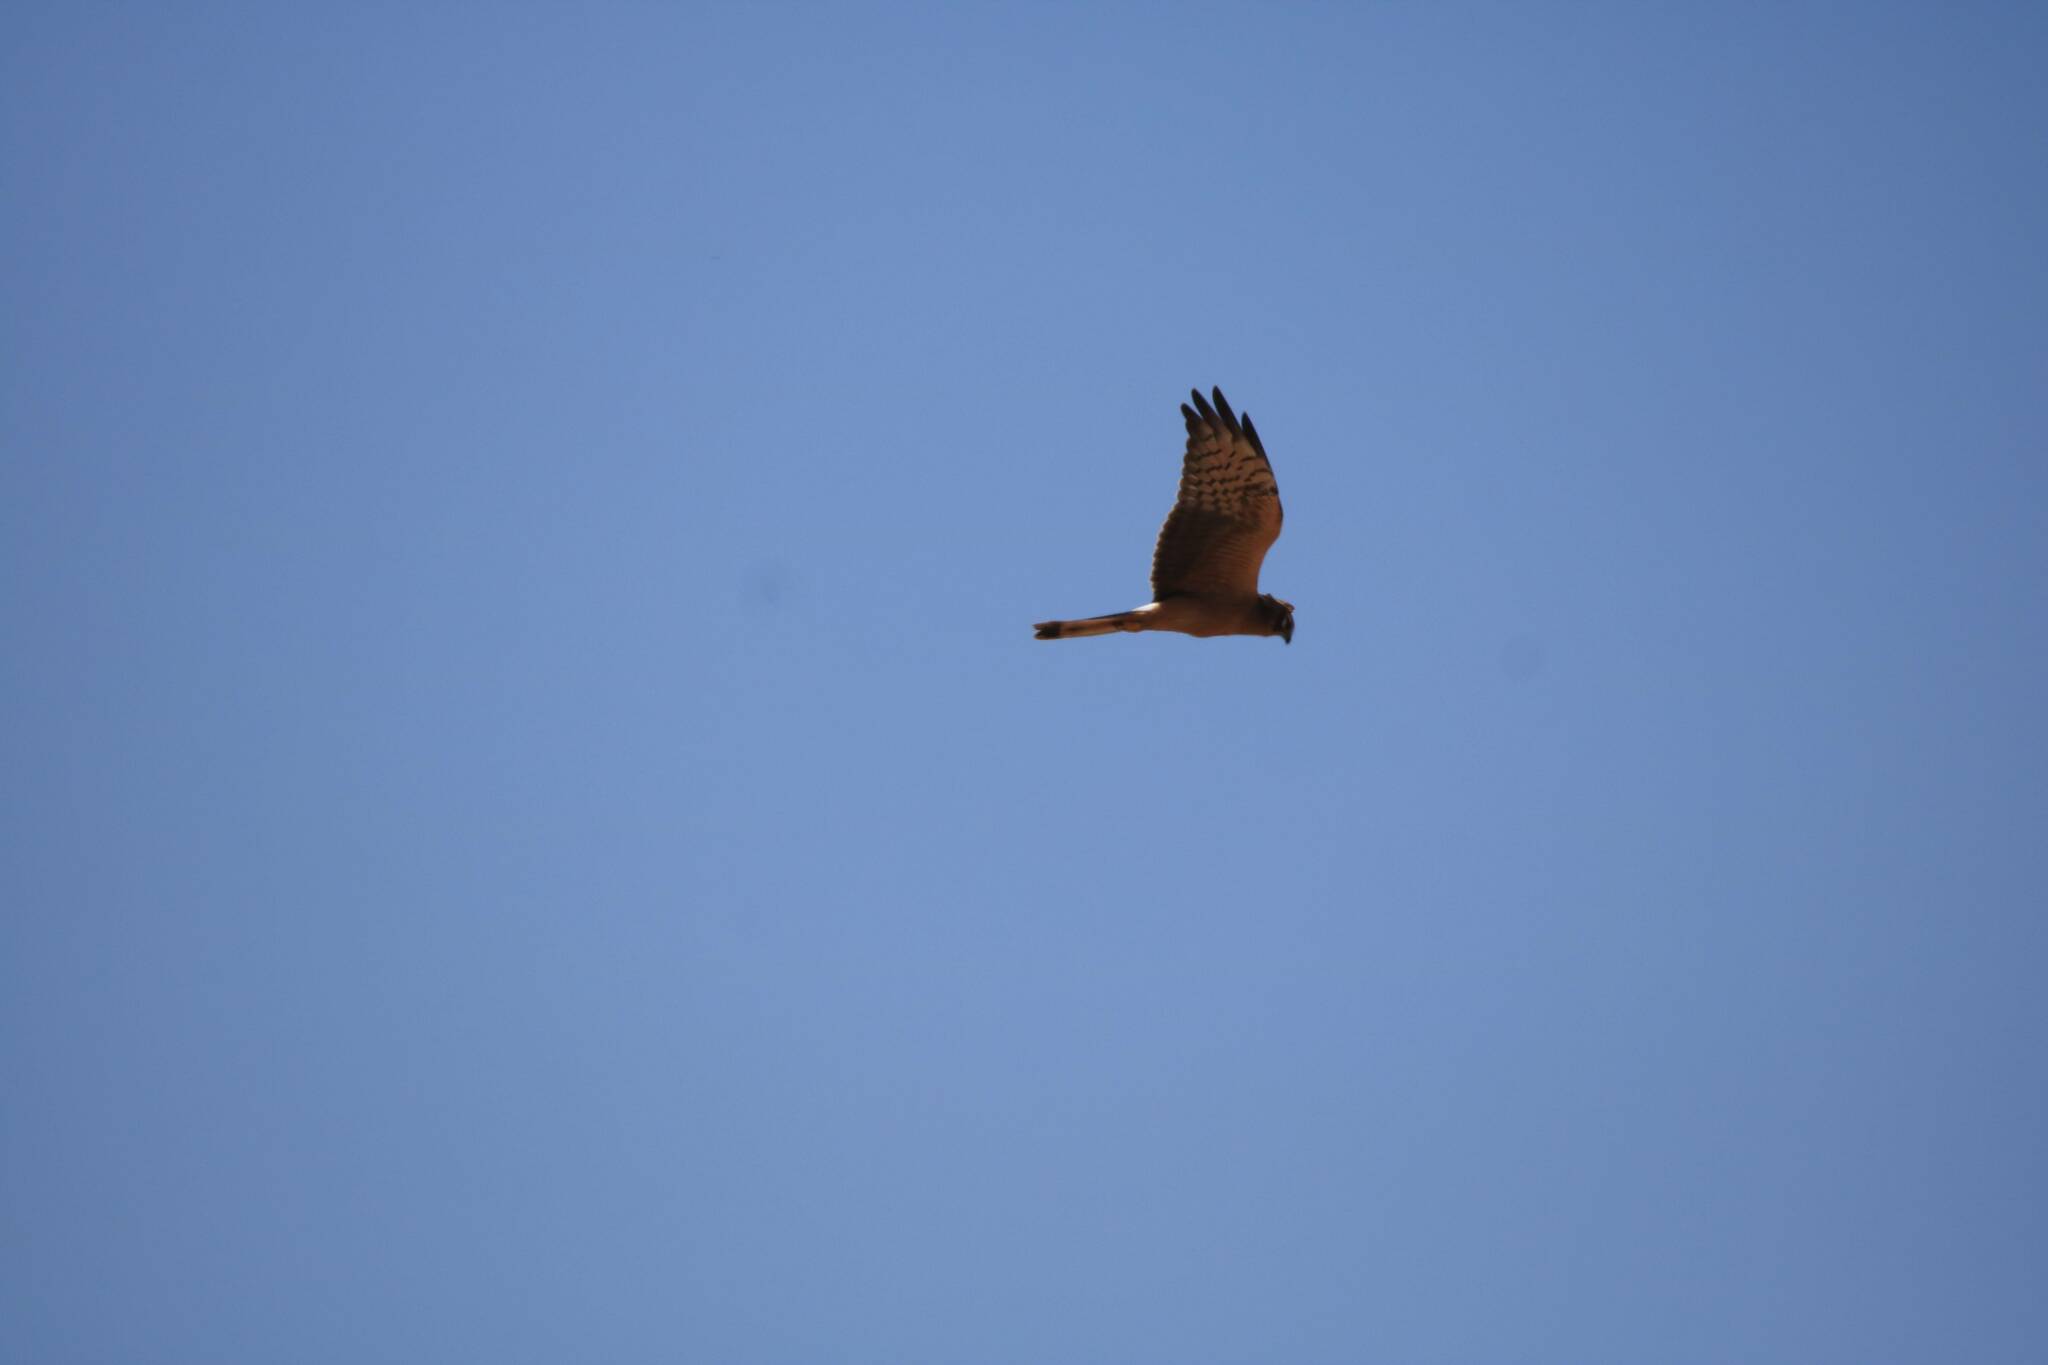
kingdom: Animalia
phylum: Chordata
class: Aves
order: Accipitriformes
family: Accipitridae
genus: Circus
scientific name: Circus pygargus
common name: Montagu's harrier
